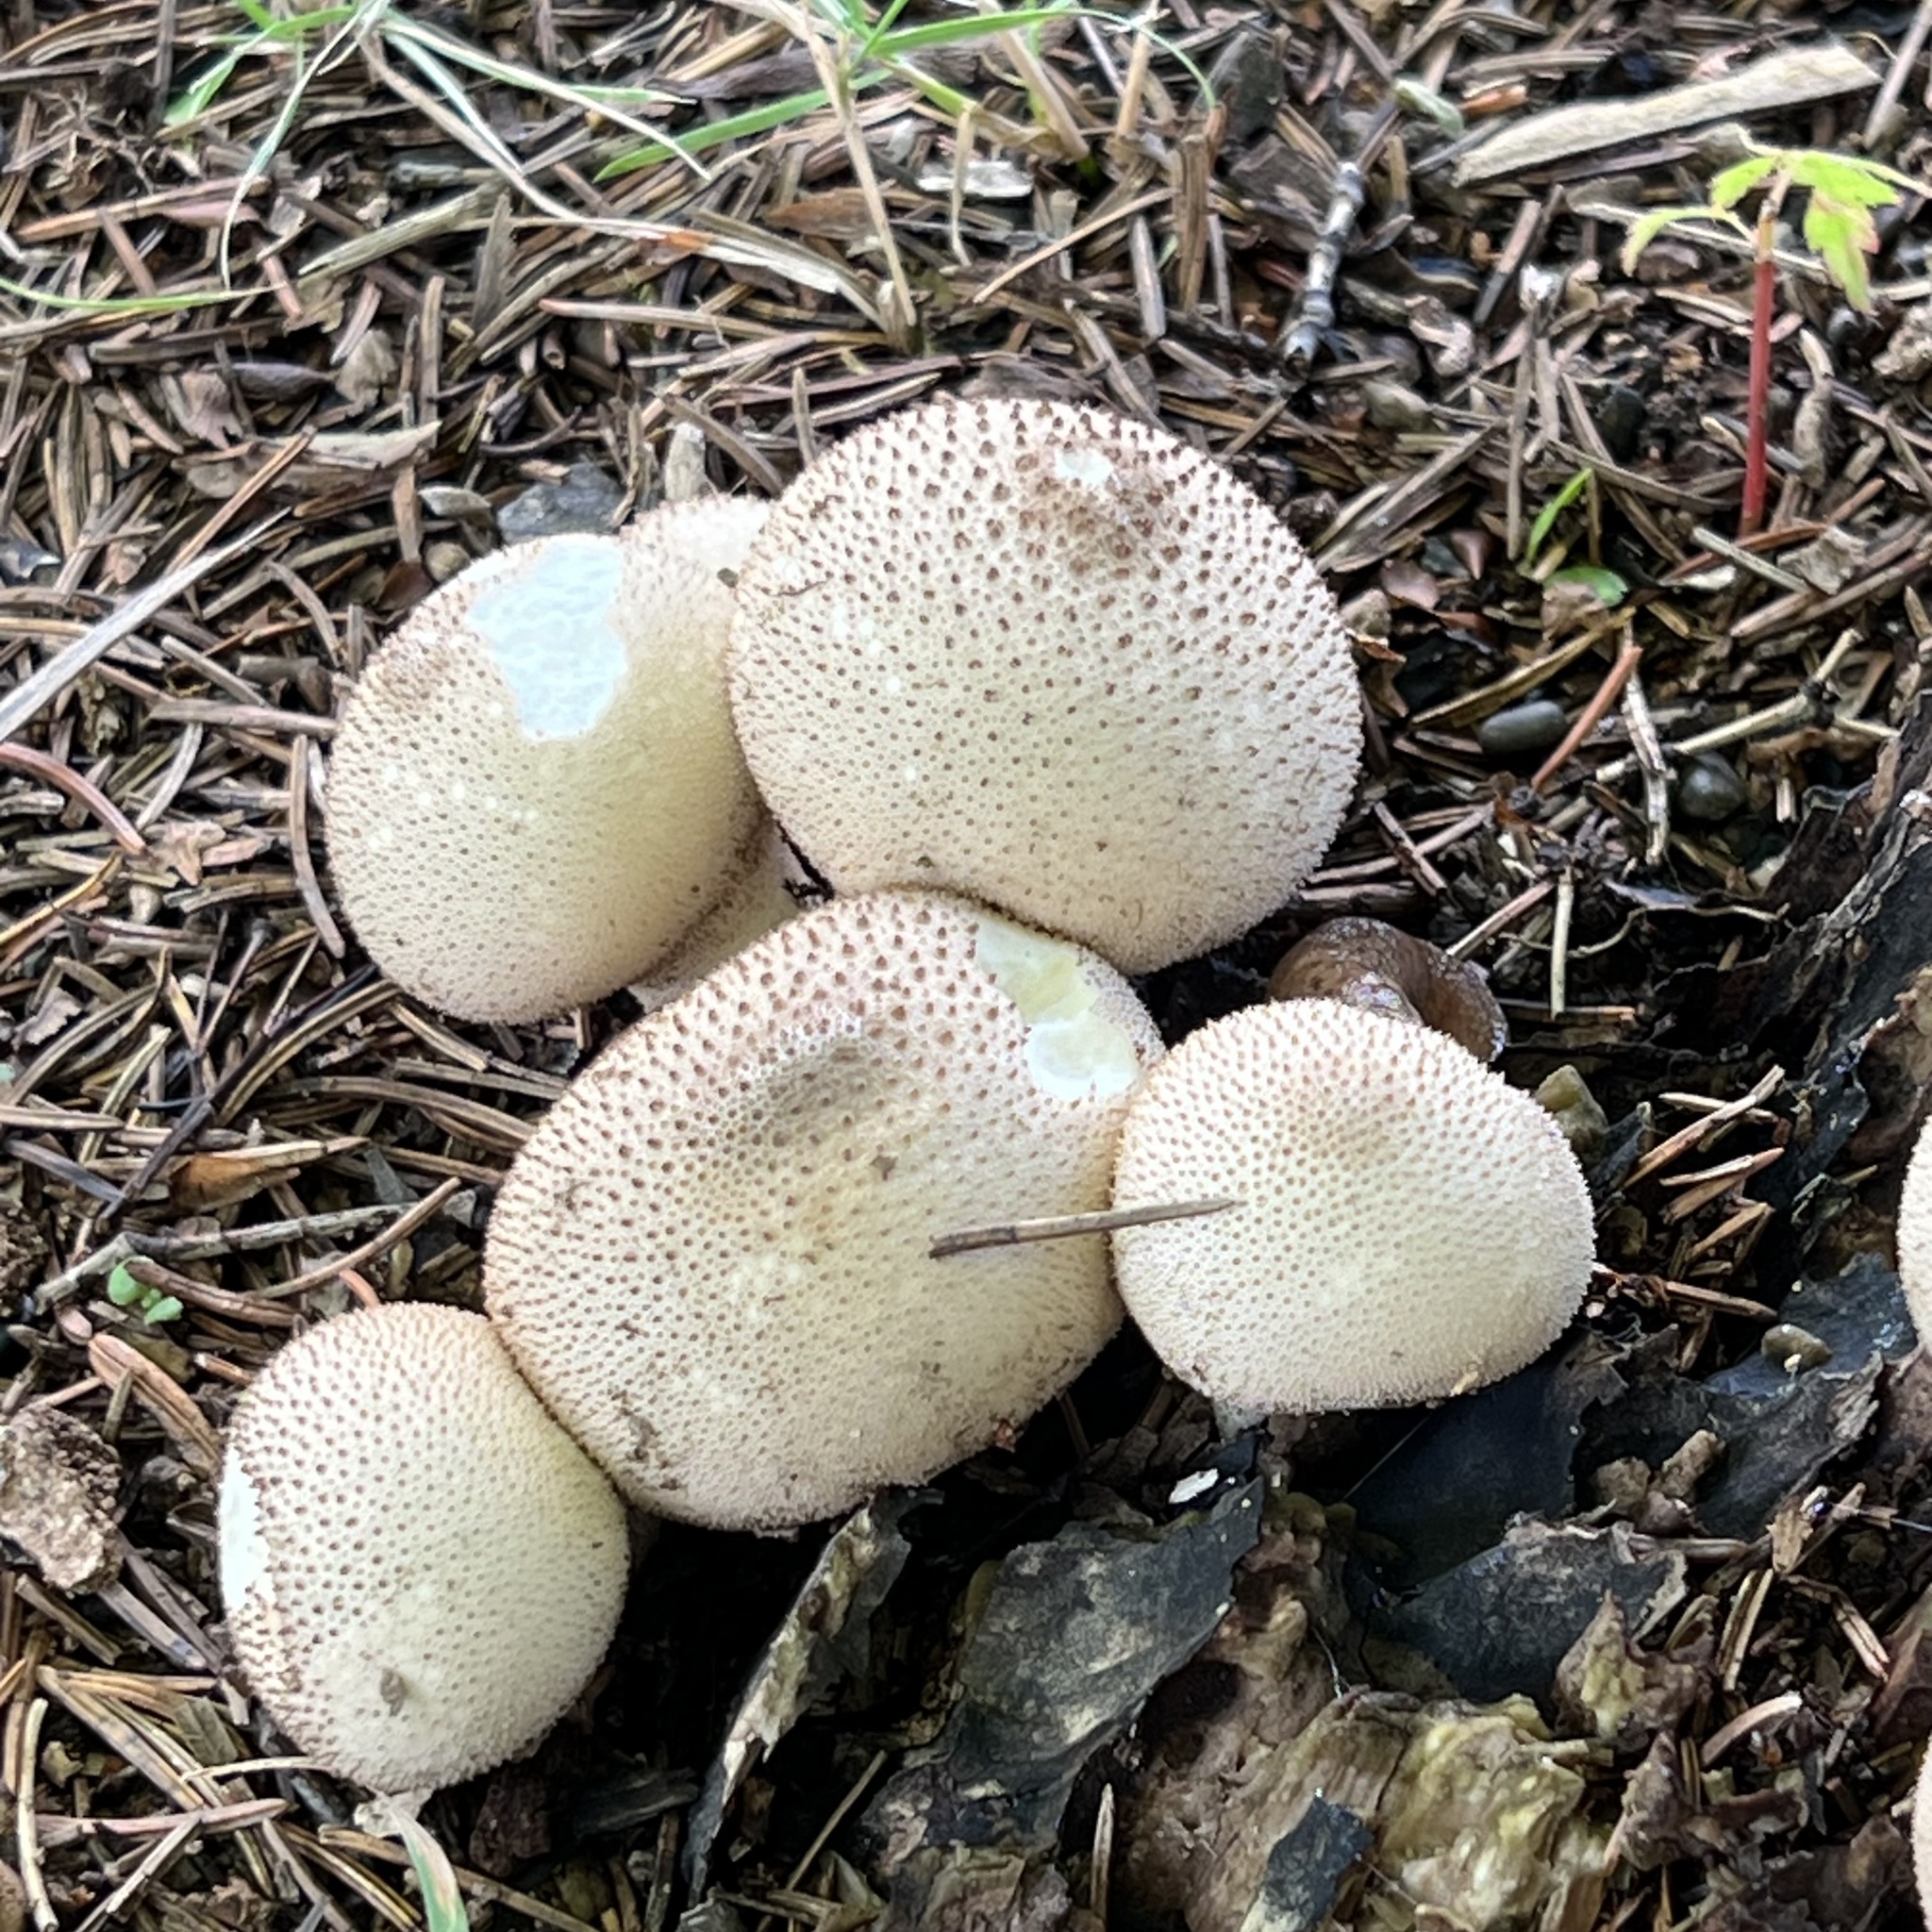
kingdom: Fungi
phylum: Basidiomycota
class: Agaricomycetes
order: Agaricales
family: Lycoperdaceae
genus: Lycoperdon
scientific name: Lycoperdon perlatum
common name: Common puffball
